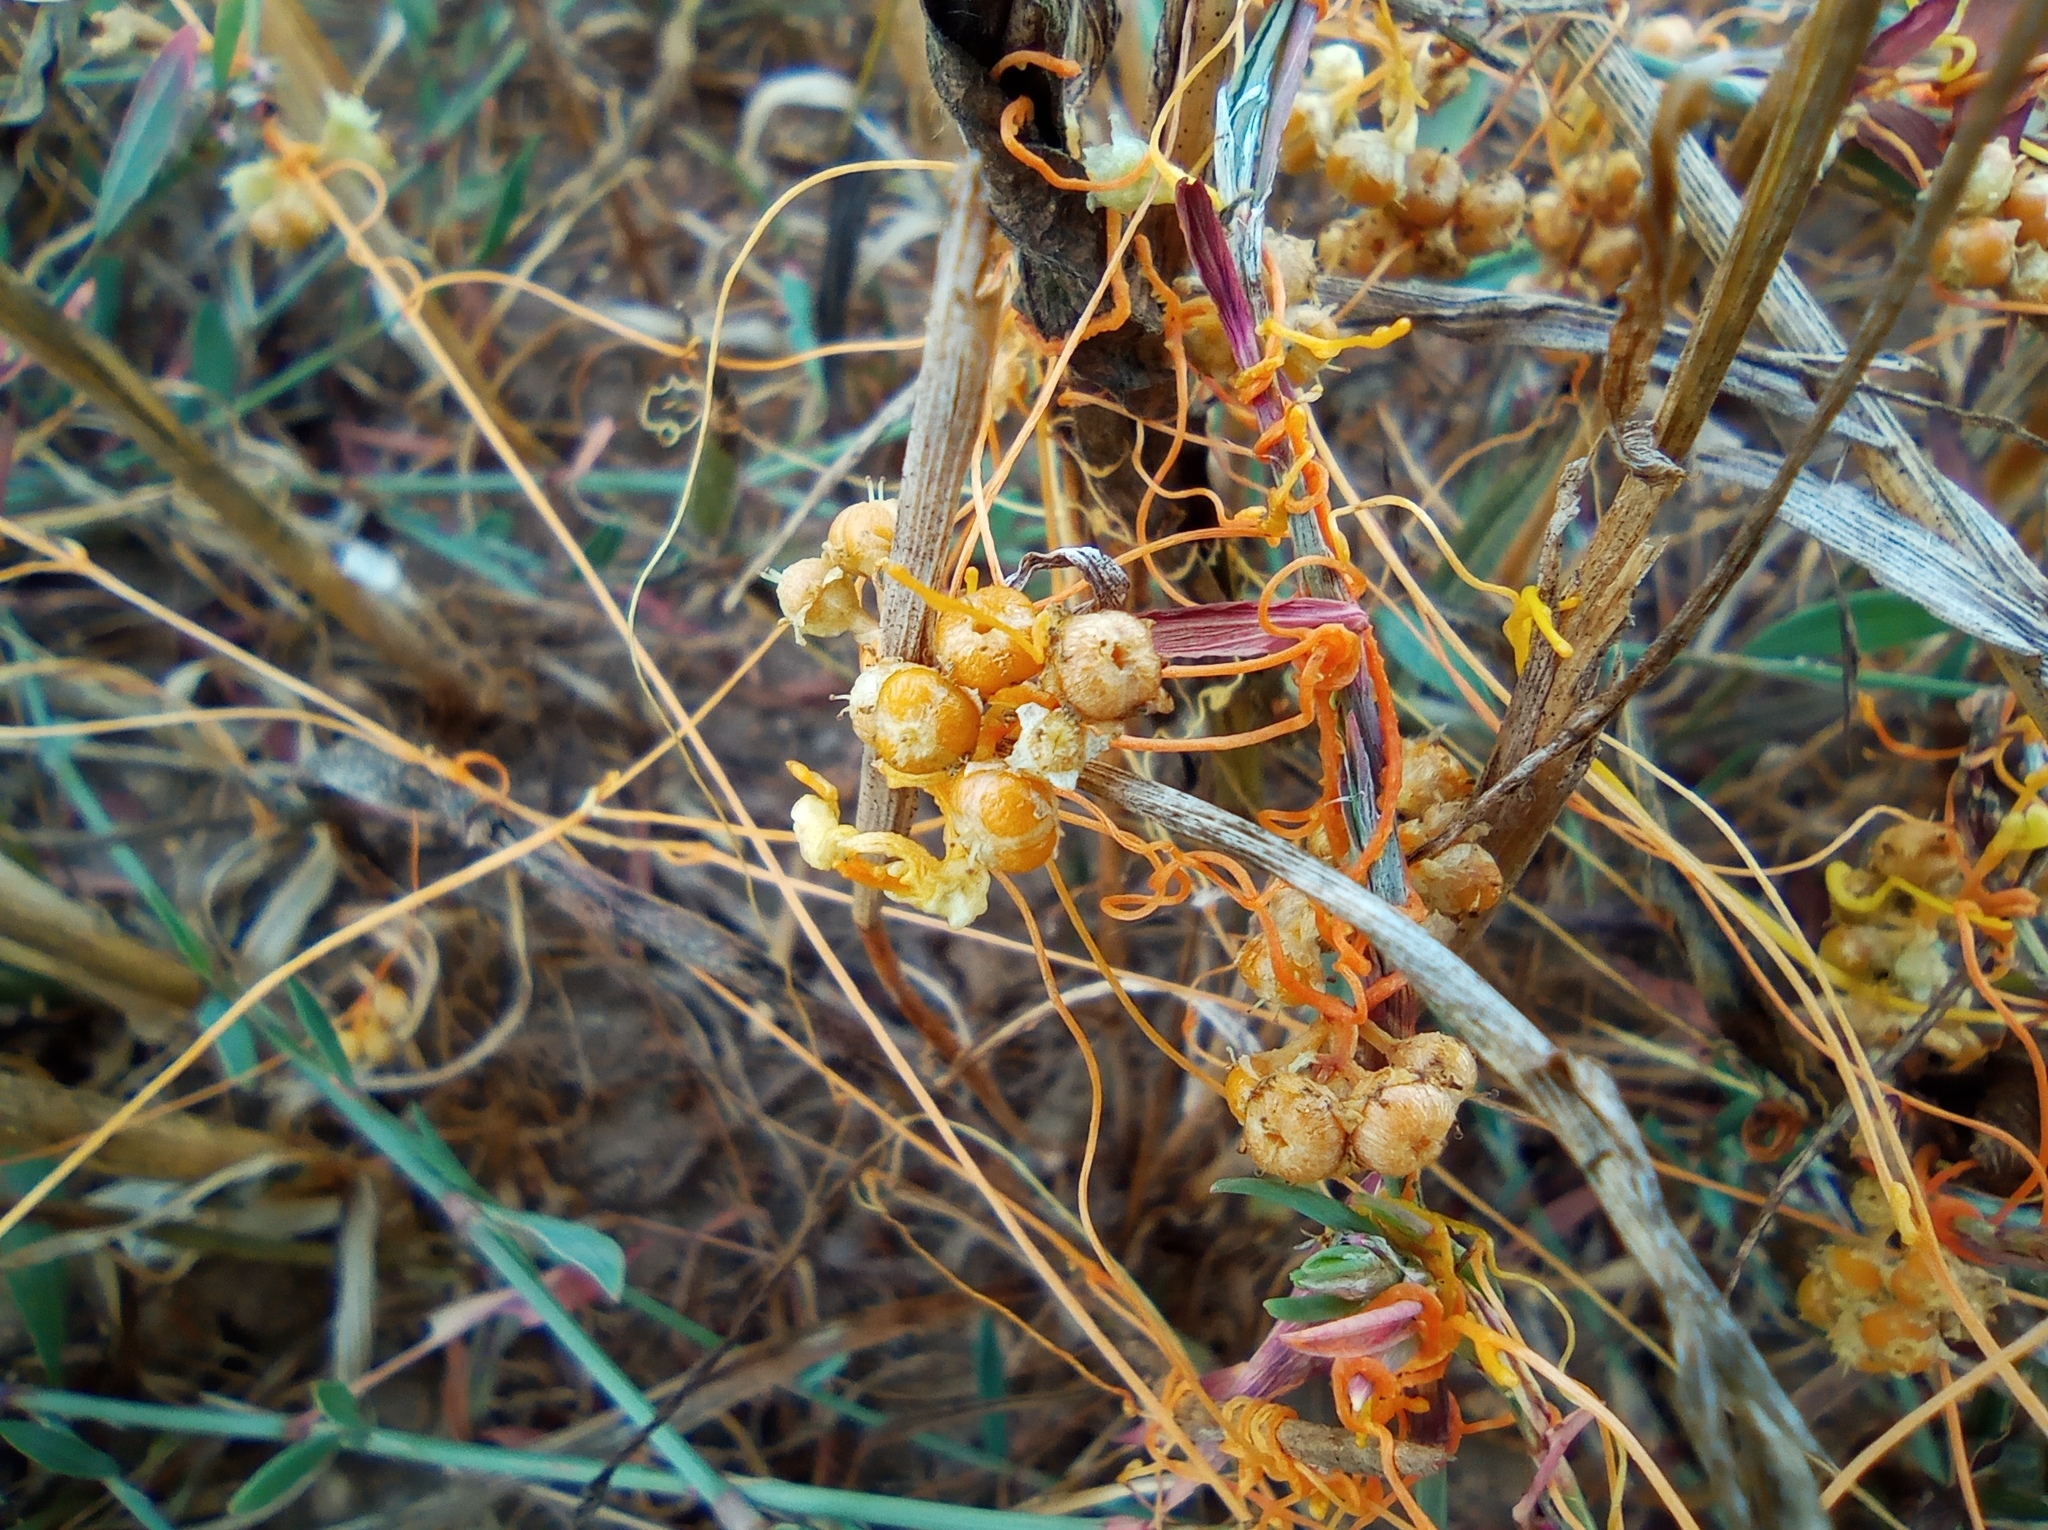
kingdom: Plantae
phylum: Tracheophyta
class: Magnoliopsida
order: Solanales
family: Convolvulaceae
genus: Cuscuta
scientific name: Cuscuta campestris
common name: Yellow dodder
